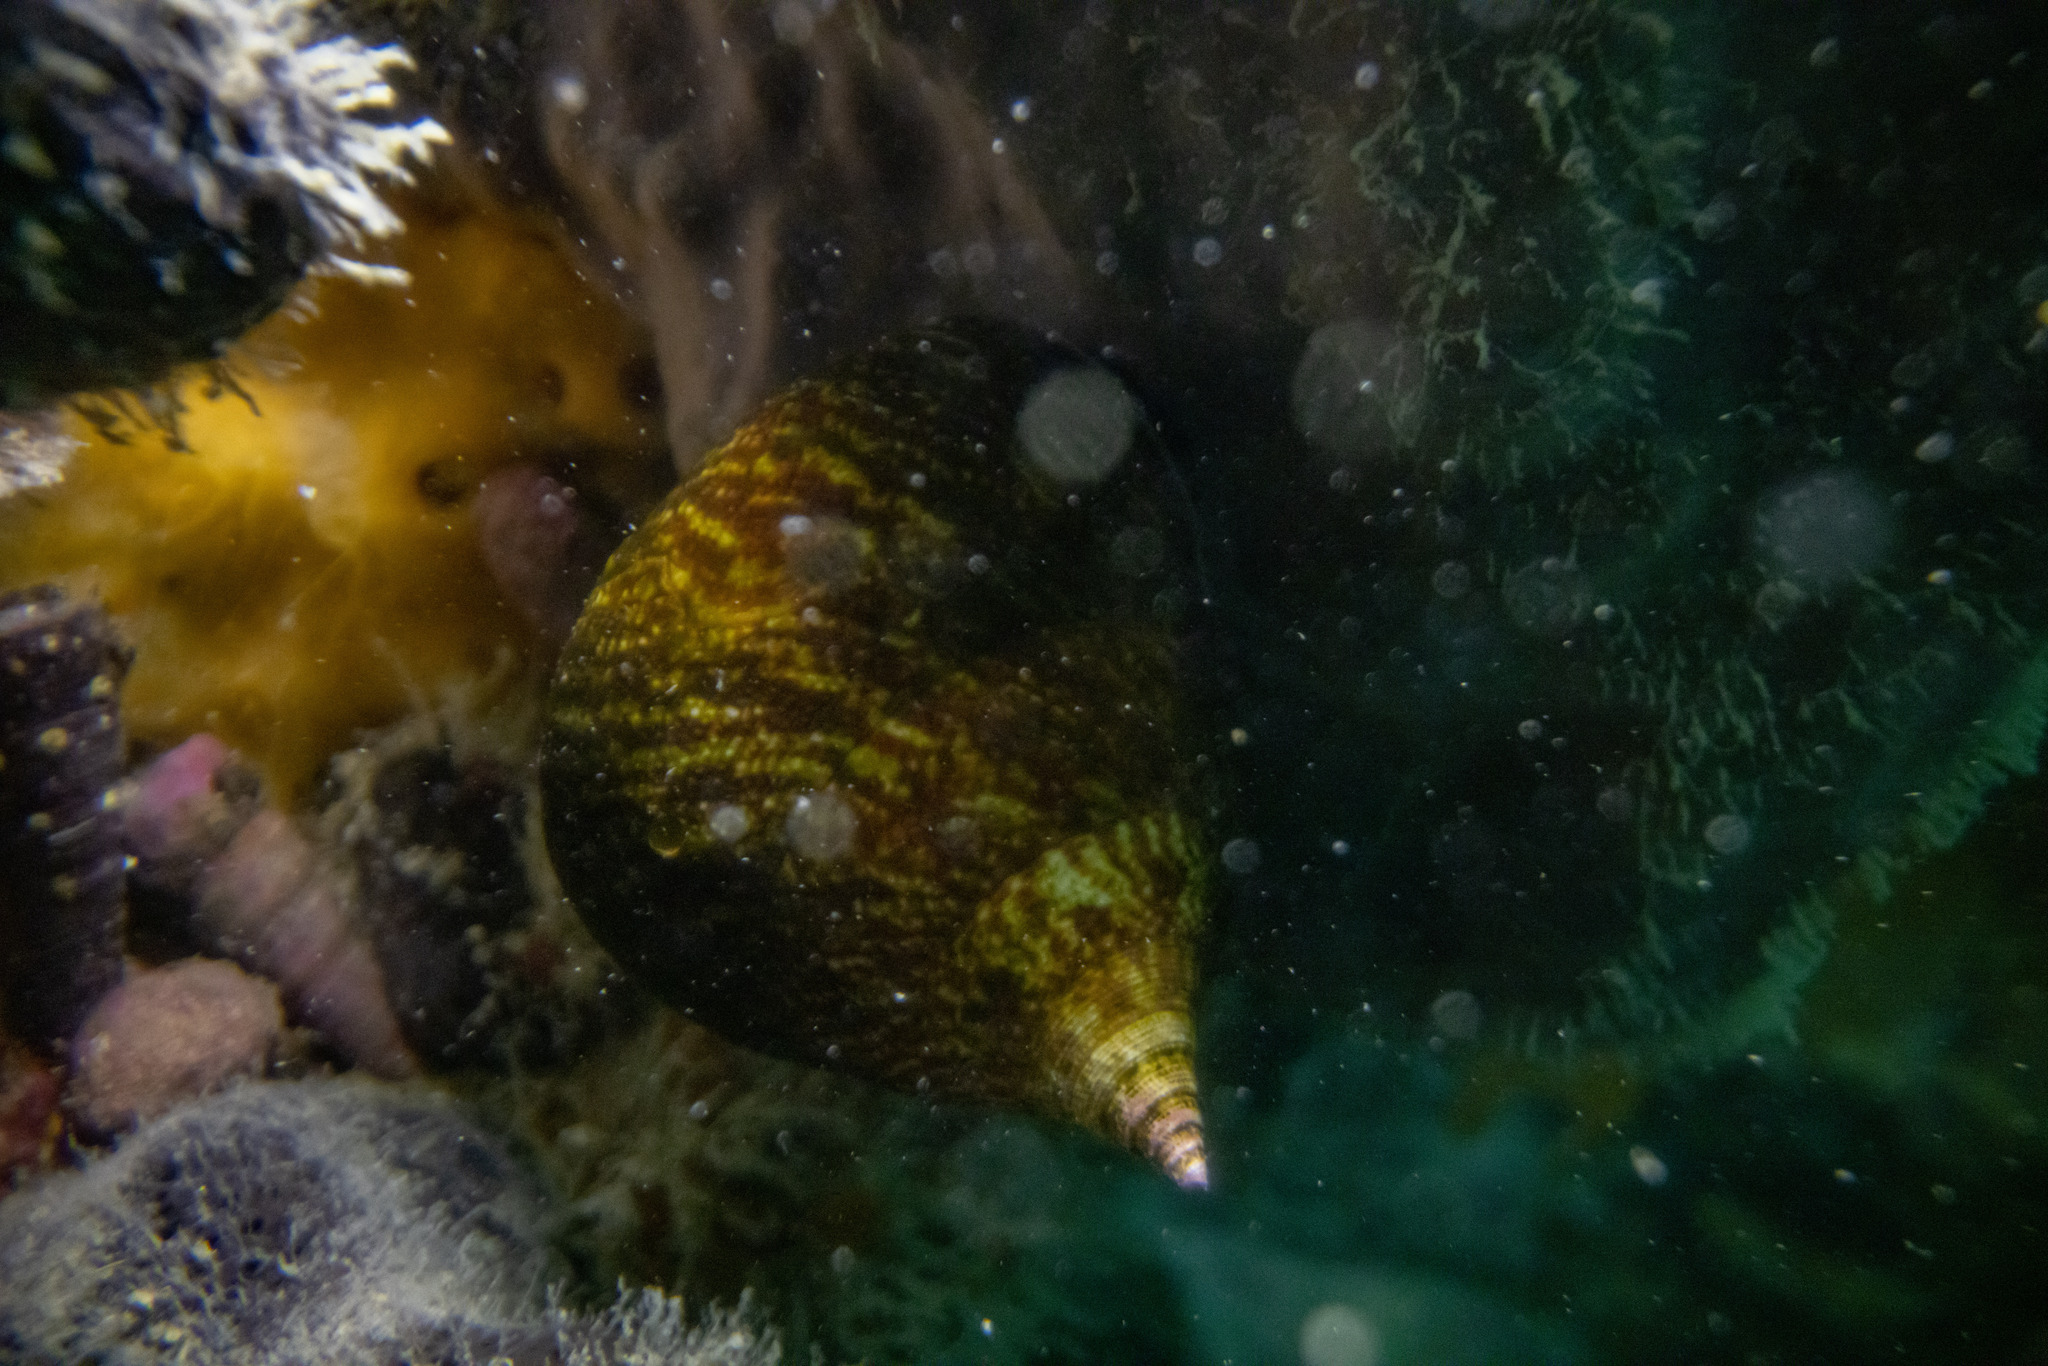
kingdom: Animalia
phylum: Mollusca
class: Gastropoda
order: Trochida
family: Calliostomatidae
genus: Maurea
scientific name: Maurea tigris
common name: Tiger maurea
